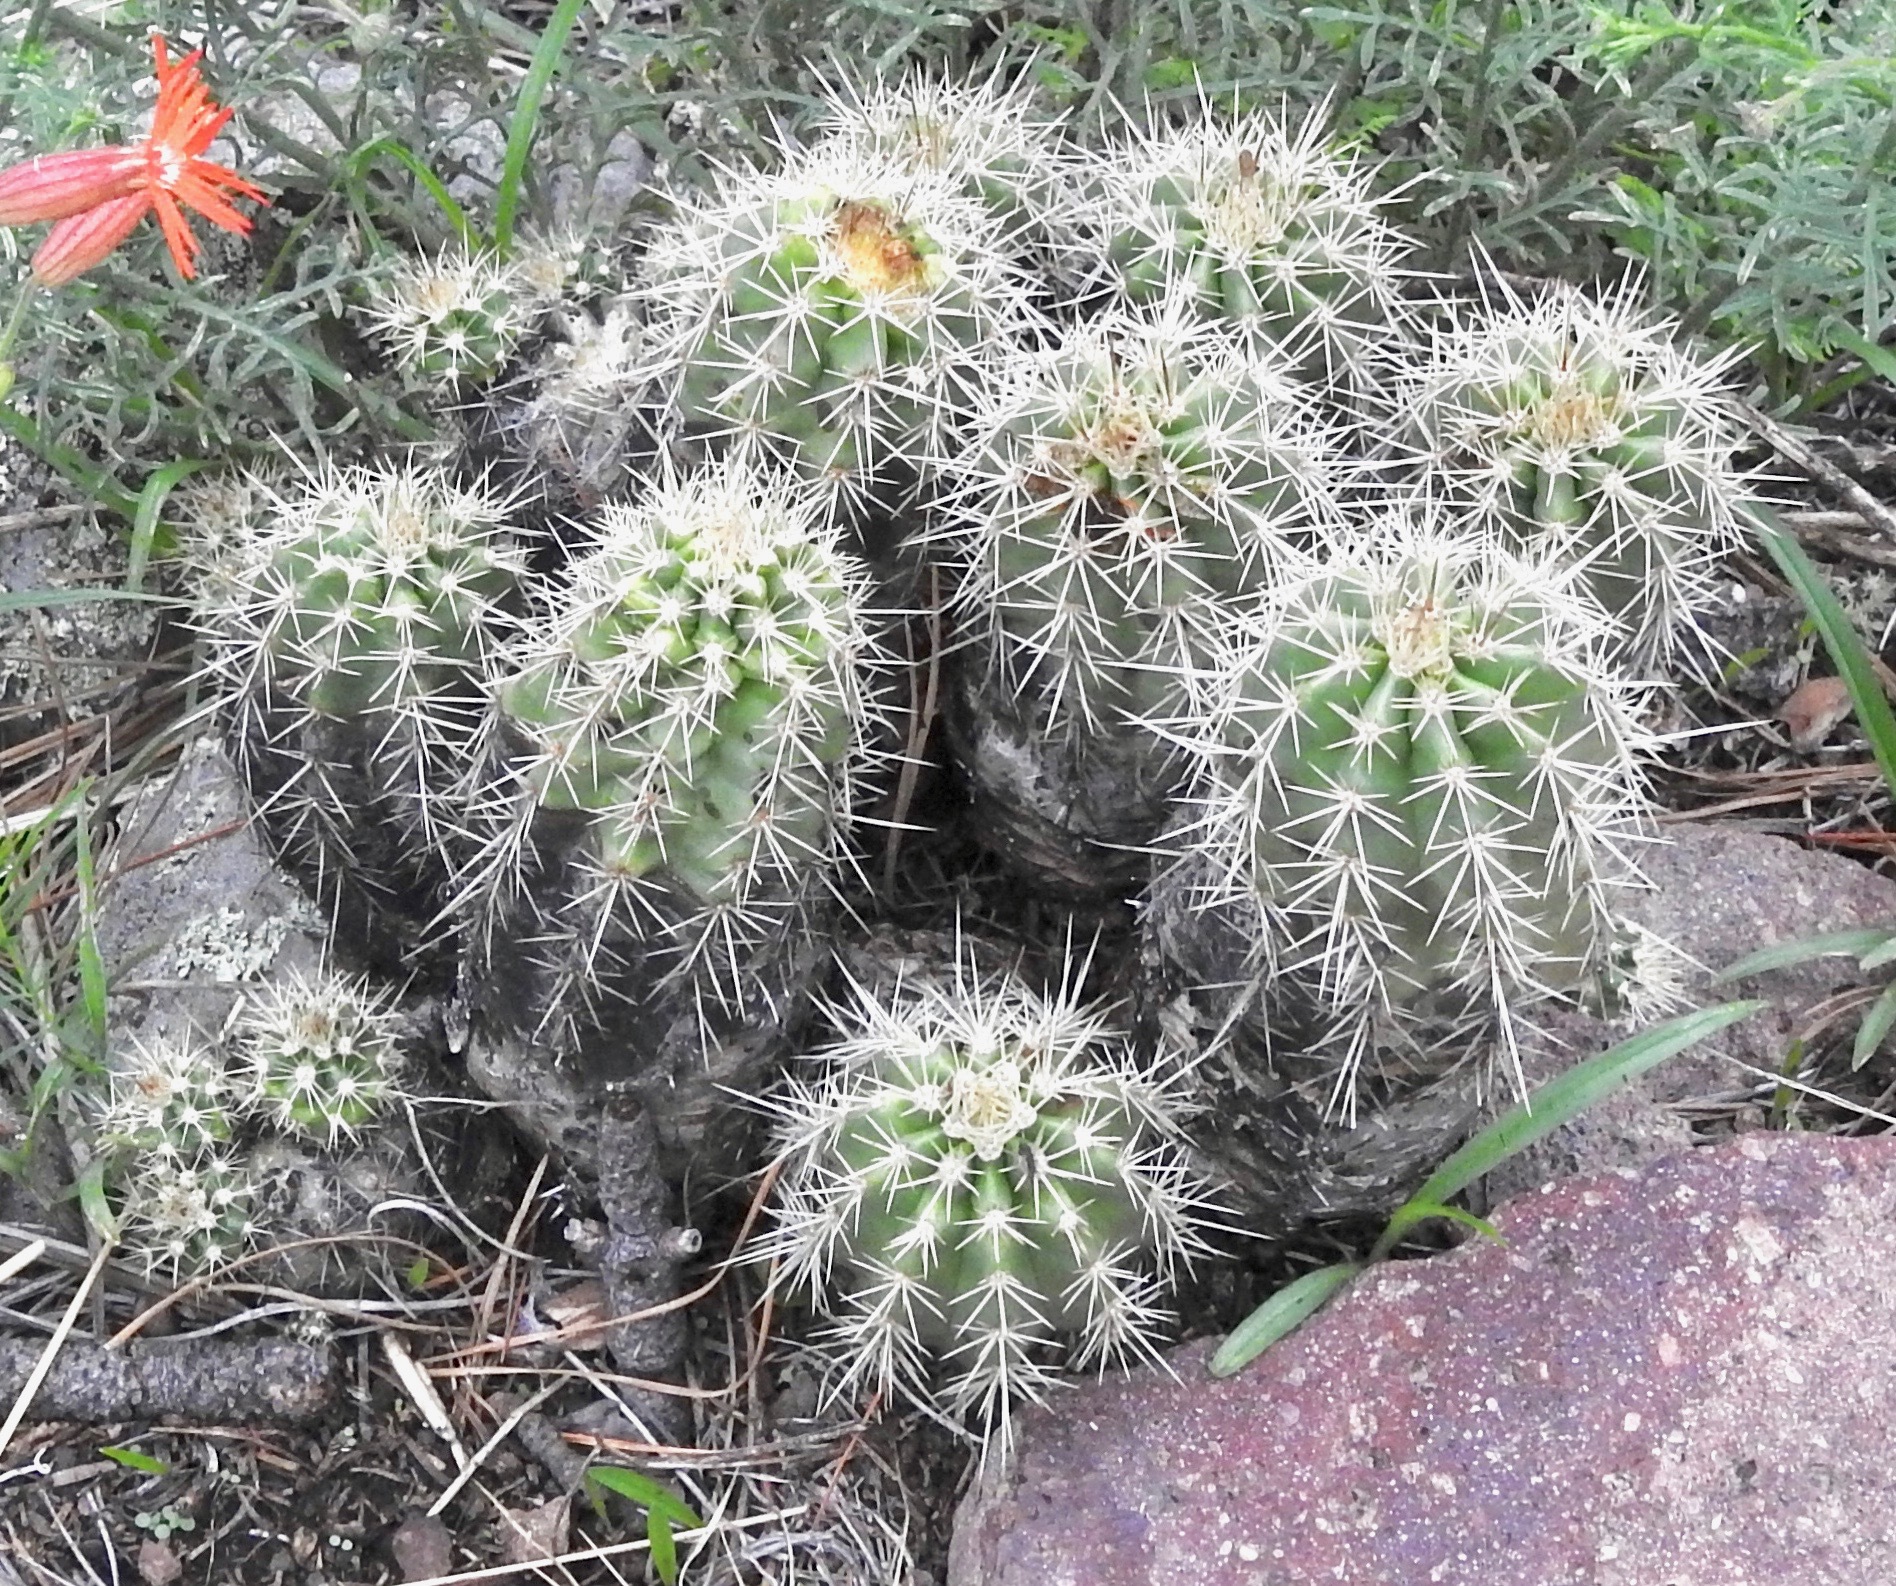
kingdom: Plantae
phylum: Tracheophyta
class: Magnoliopsida
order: Caryophyllales
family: Cactaceae
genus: Echinocereus
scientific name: Echinocereus coccineus
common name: Scarlet hedgehog cactus
